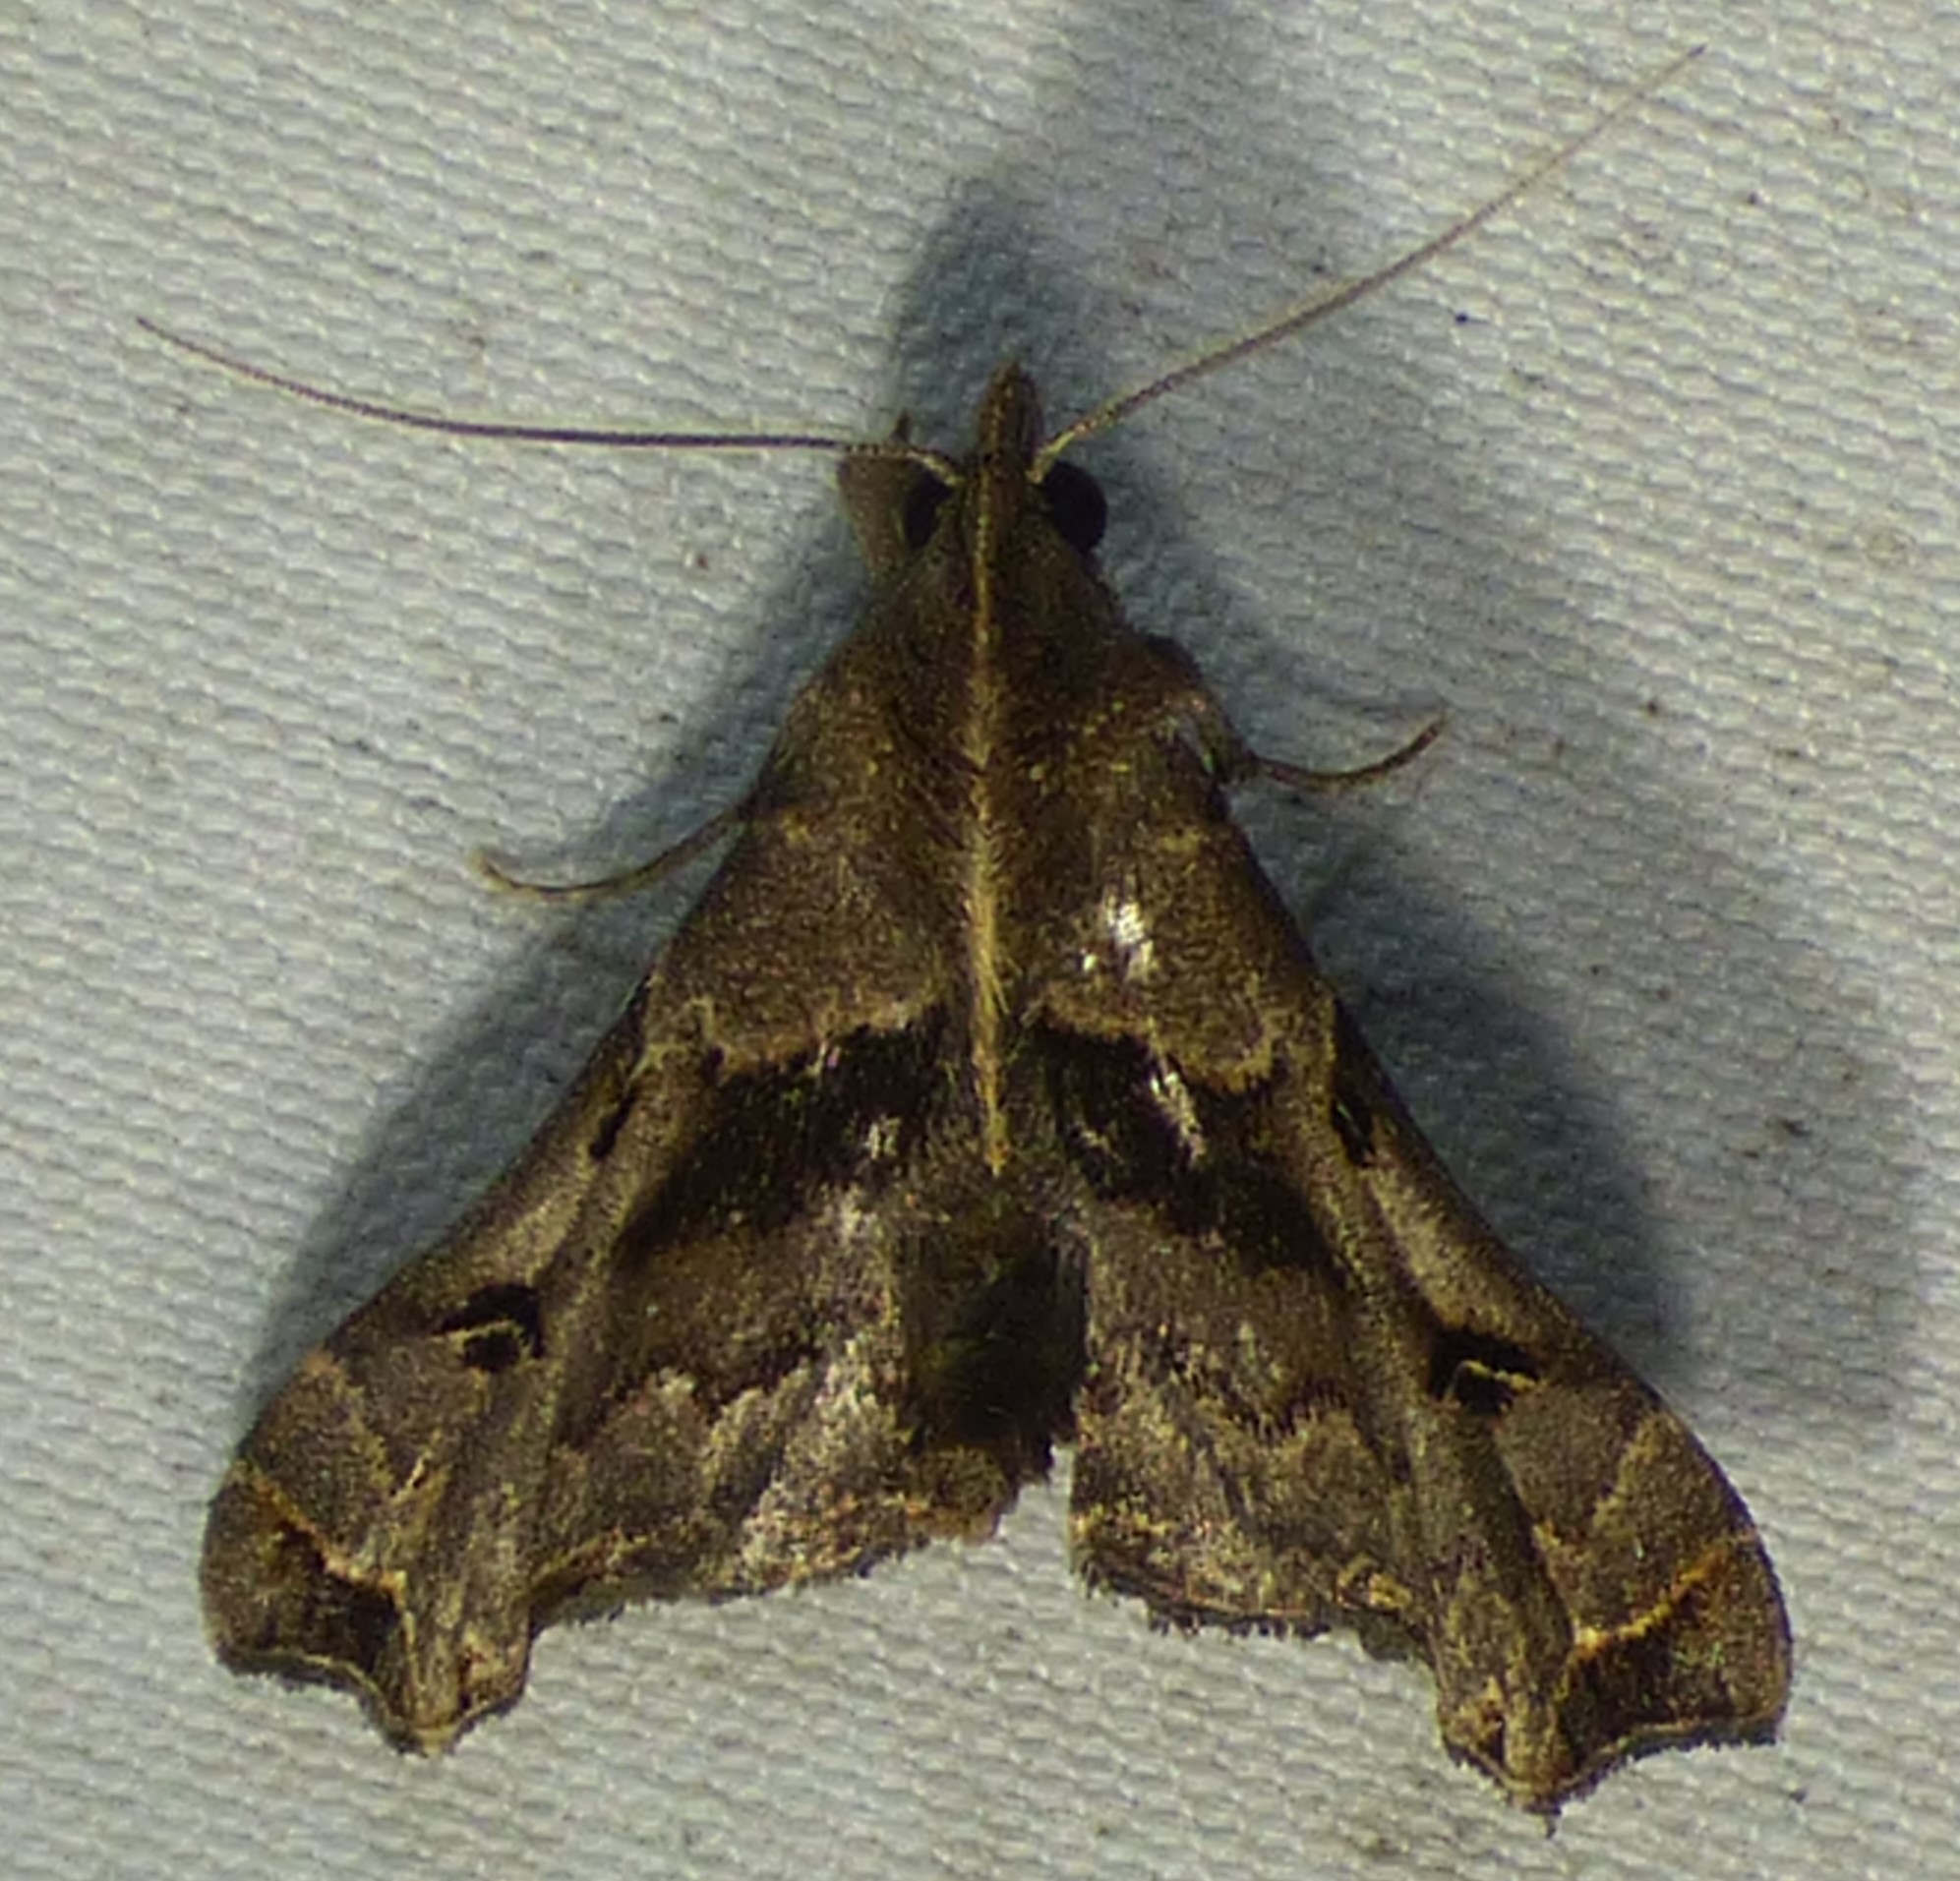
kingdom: Animalia
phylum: Arthropoda
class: Insecta
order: Lepidoptera
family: Erebidae
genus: Palthis
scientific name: Palthis asopialis
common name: Faint-spotted palthis moth
